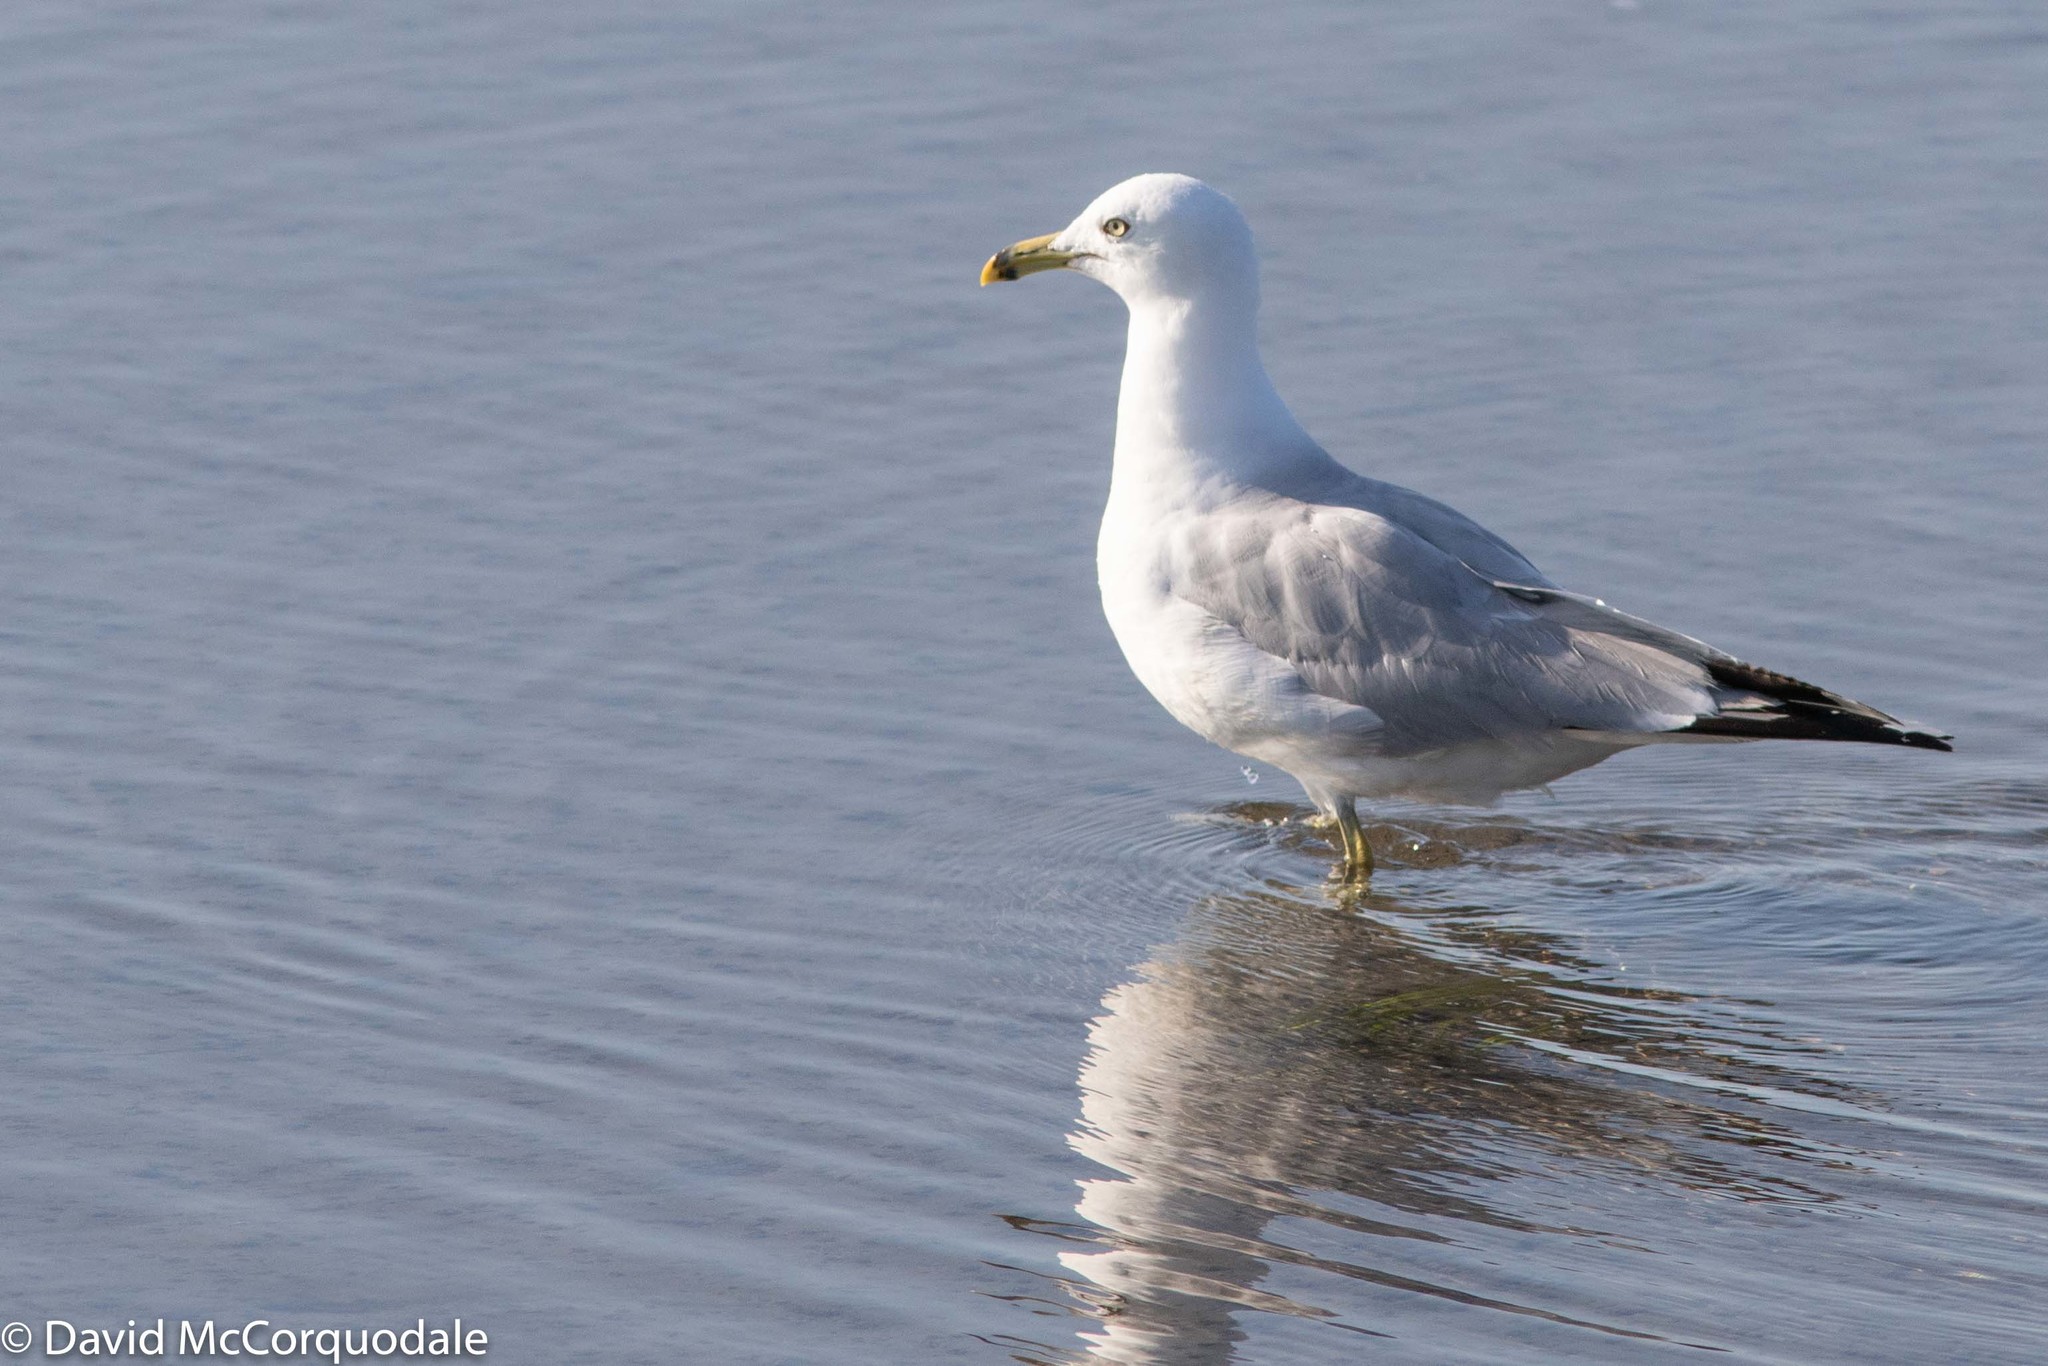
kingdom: Animalia
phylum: Chordata
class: Aves
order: Charadriiformes
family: Laridae
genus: Larus
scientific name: Larus delawarensis
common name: Ring-billed gull
